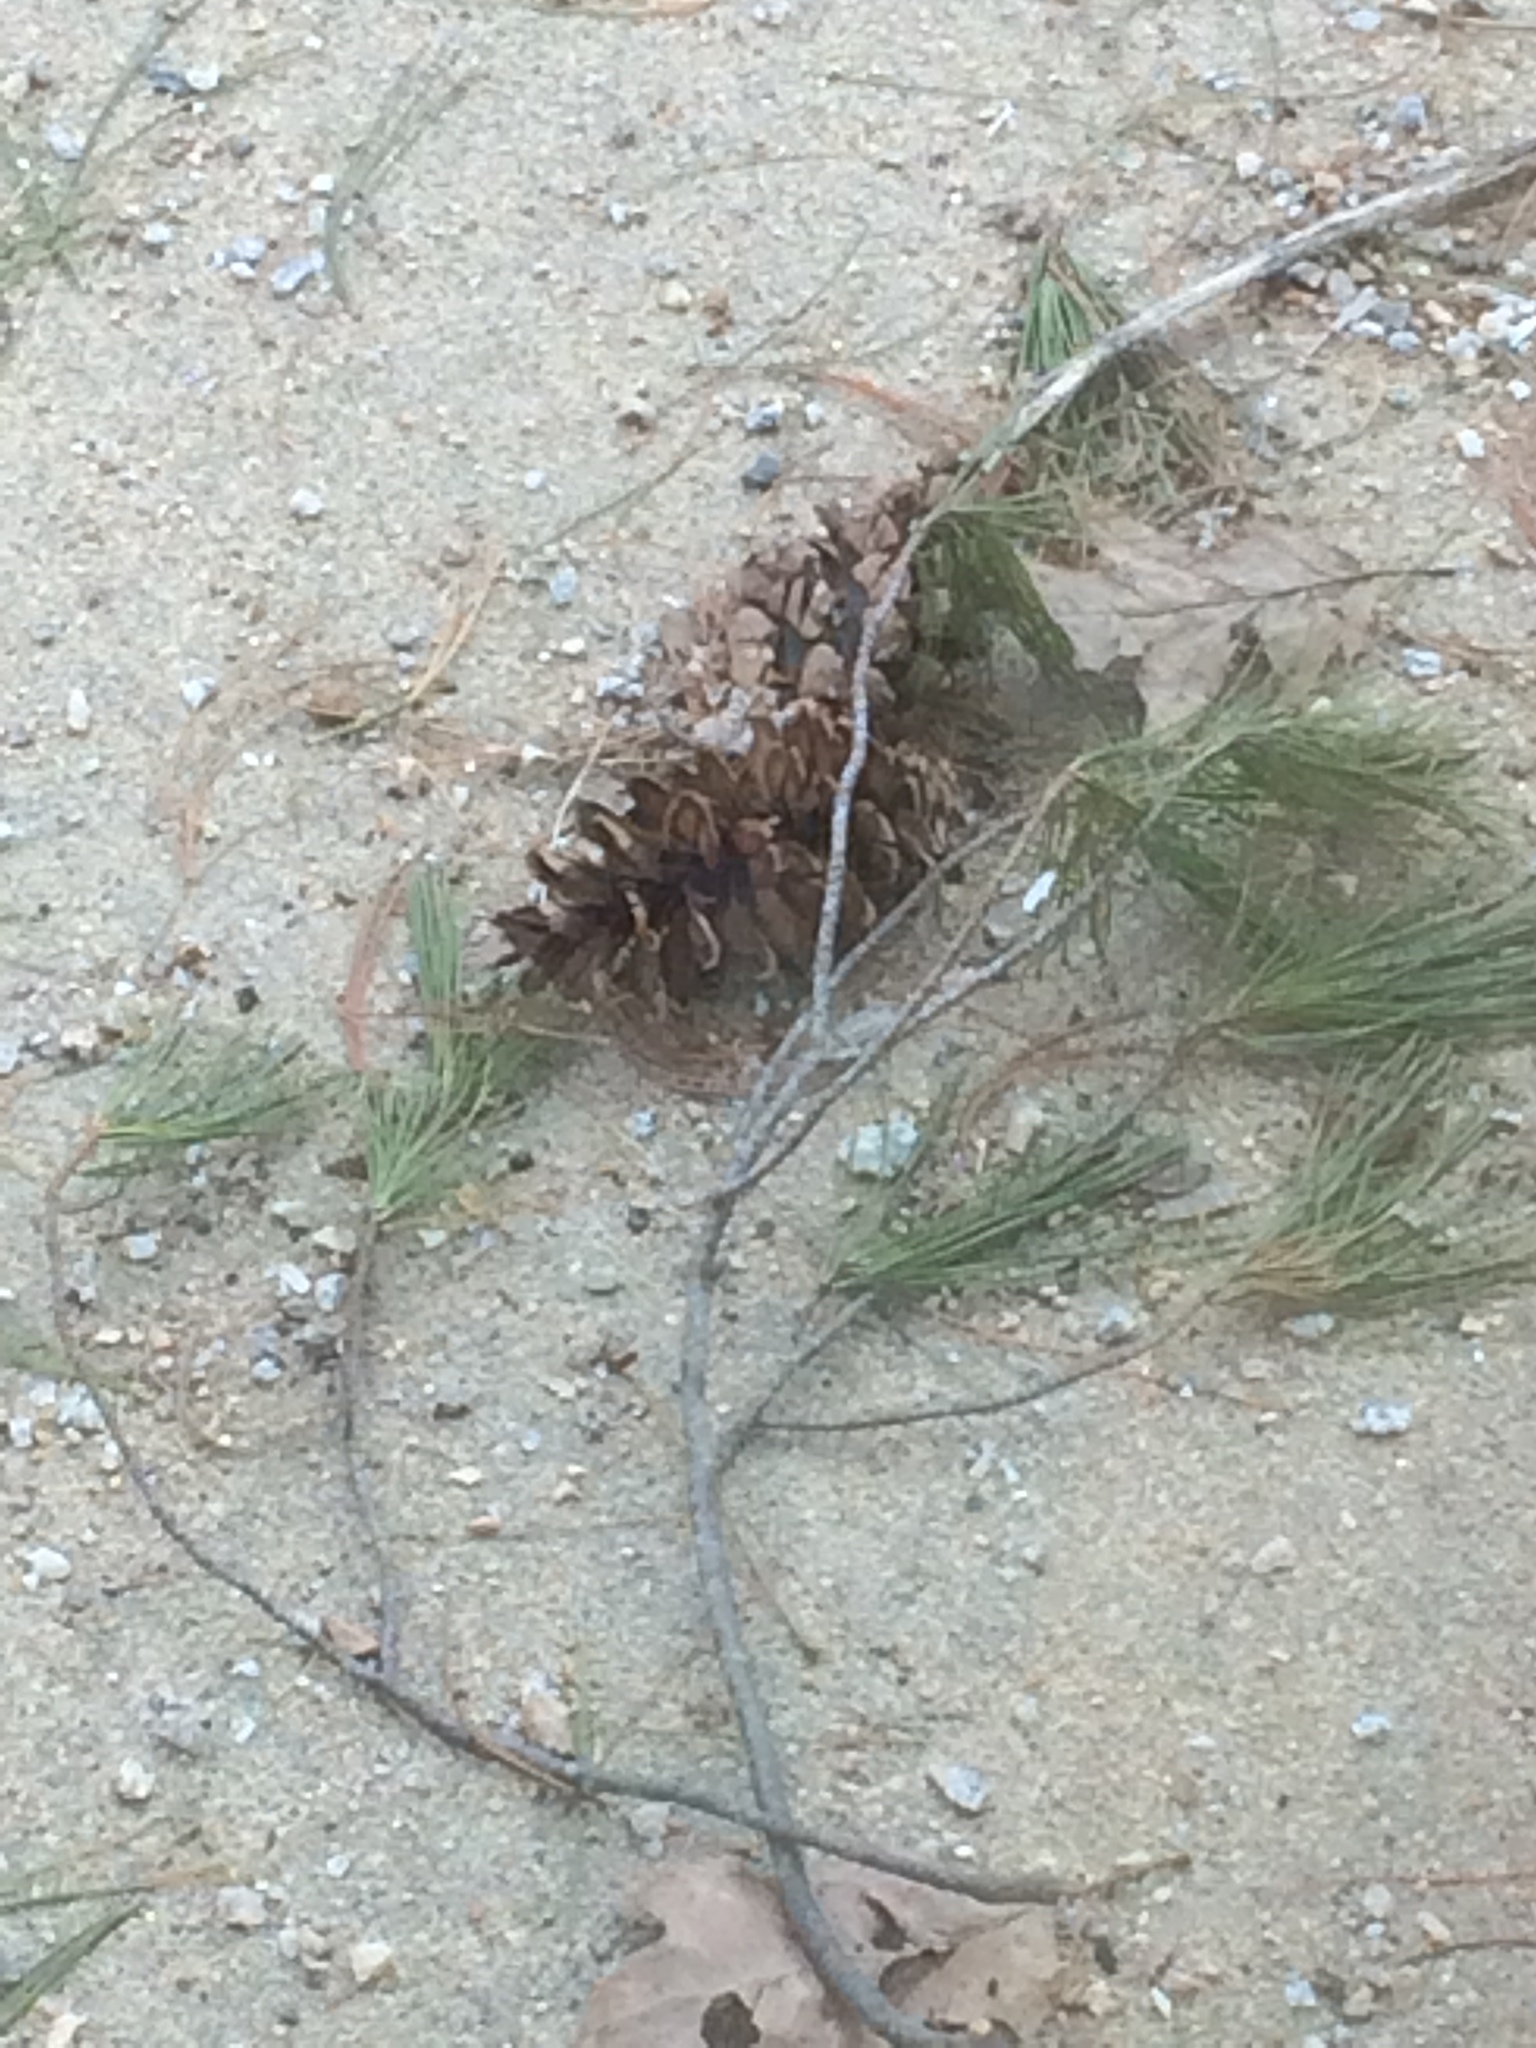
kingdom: Plantae
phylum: Tracheophyta
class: Pinopsida
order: Pinales
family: Pinaceae
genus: Pinus
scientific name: Pinus strobus
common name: Weymouth pine
